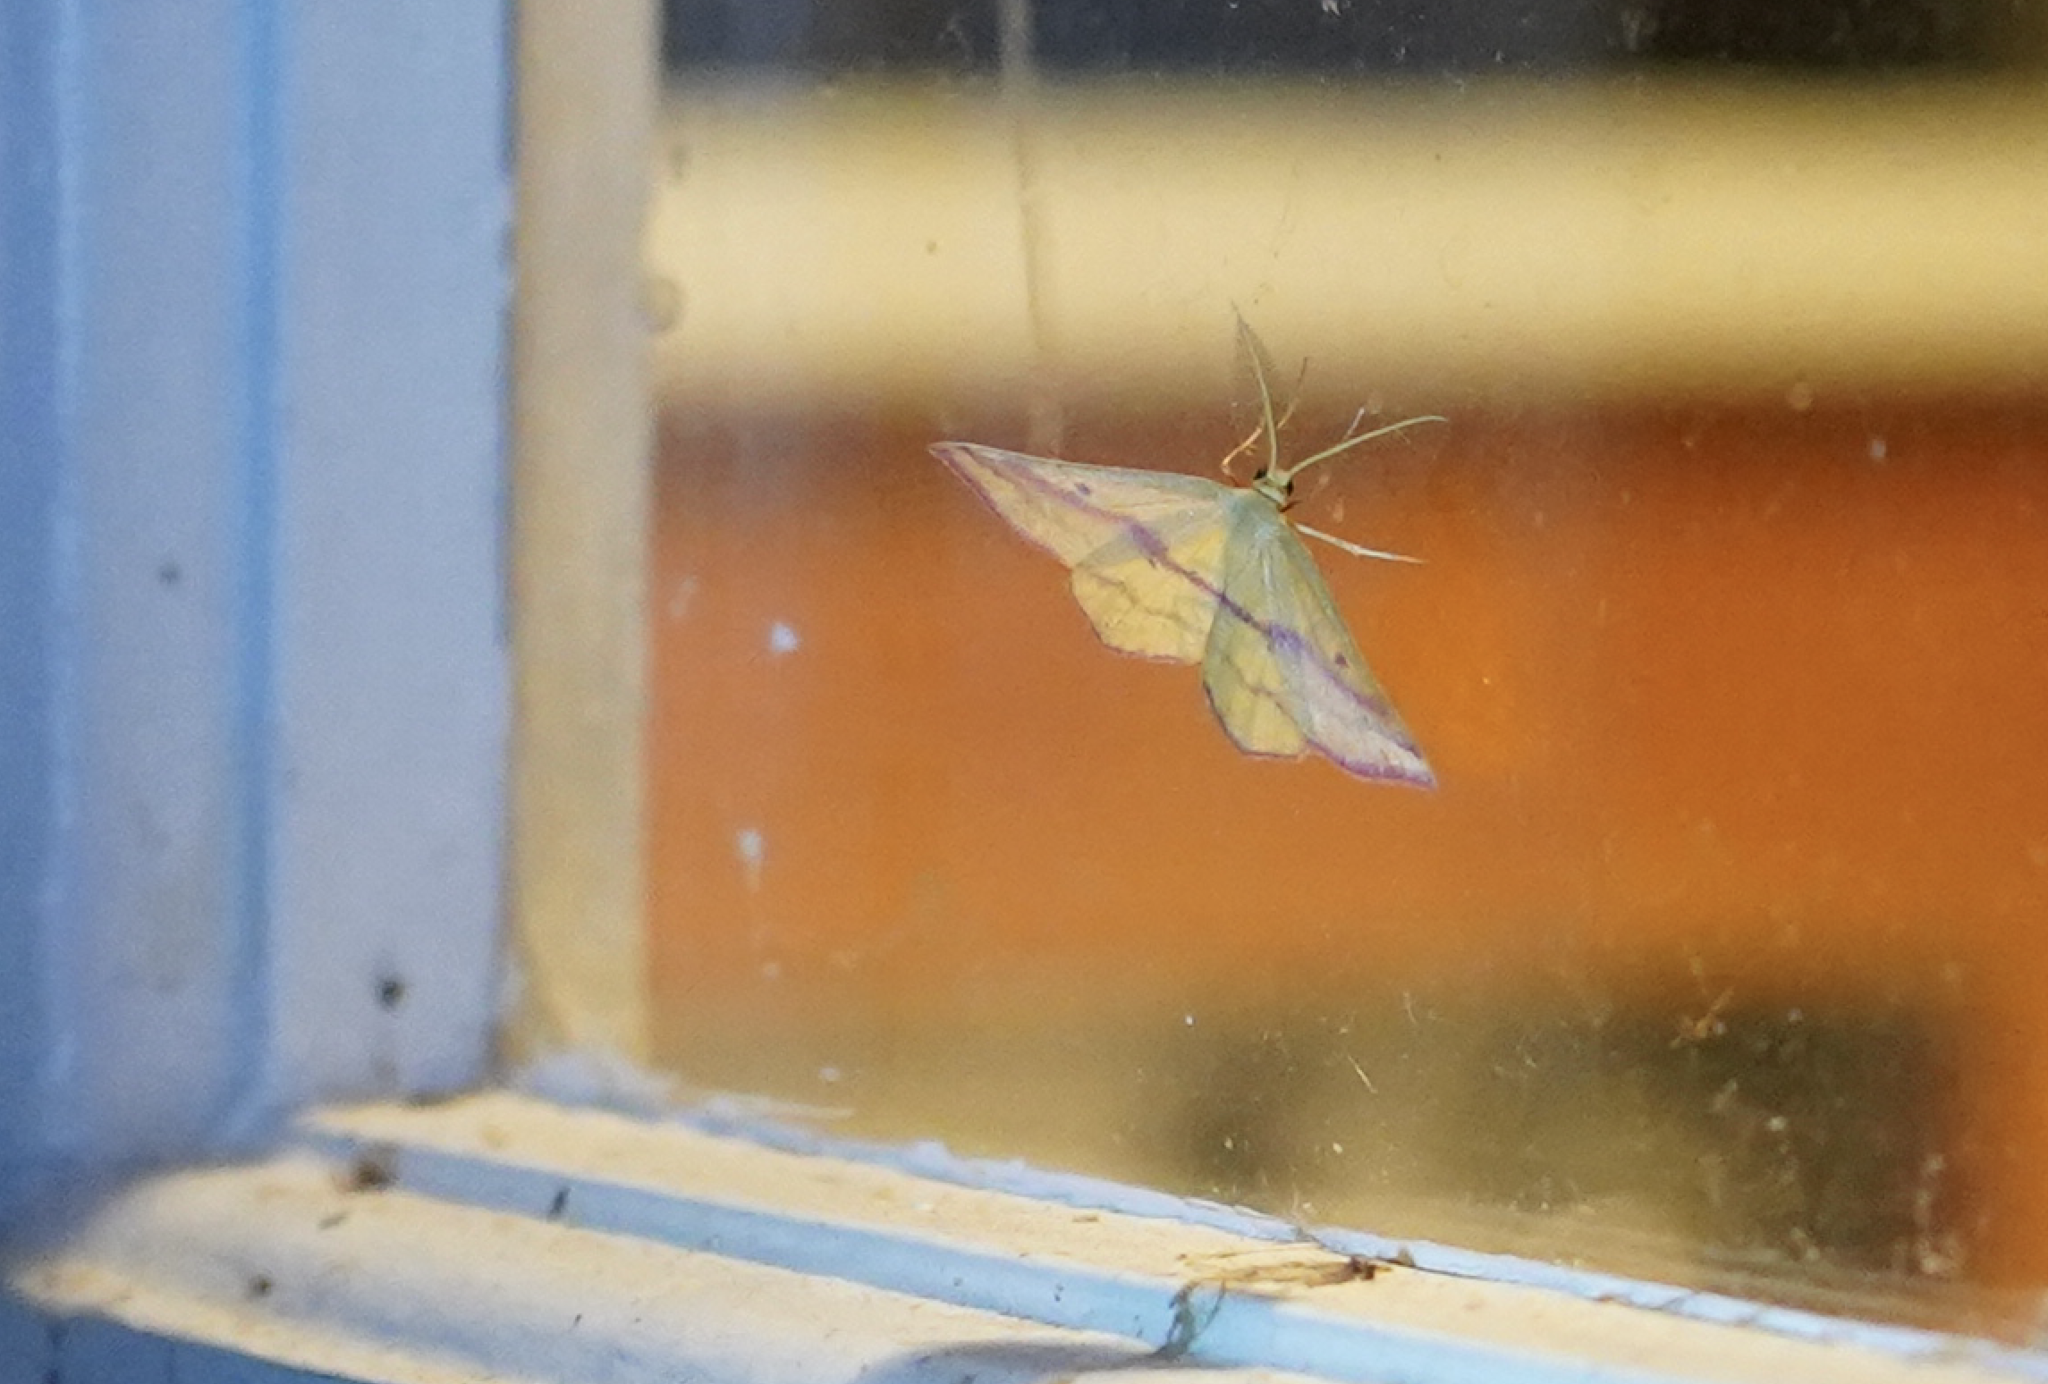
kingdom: Animalia
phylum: Arthropoda
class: Insecta
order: Lepidoptera
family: Geometridae
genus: Haematopis
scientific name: Haematopis grataria
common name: Chickweed geometer
